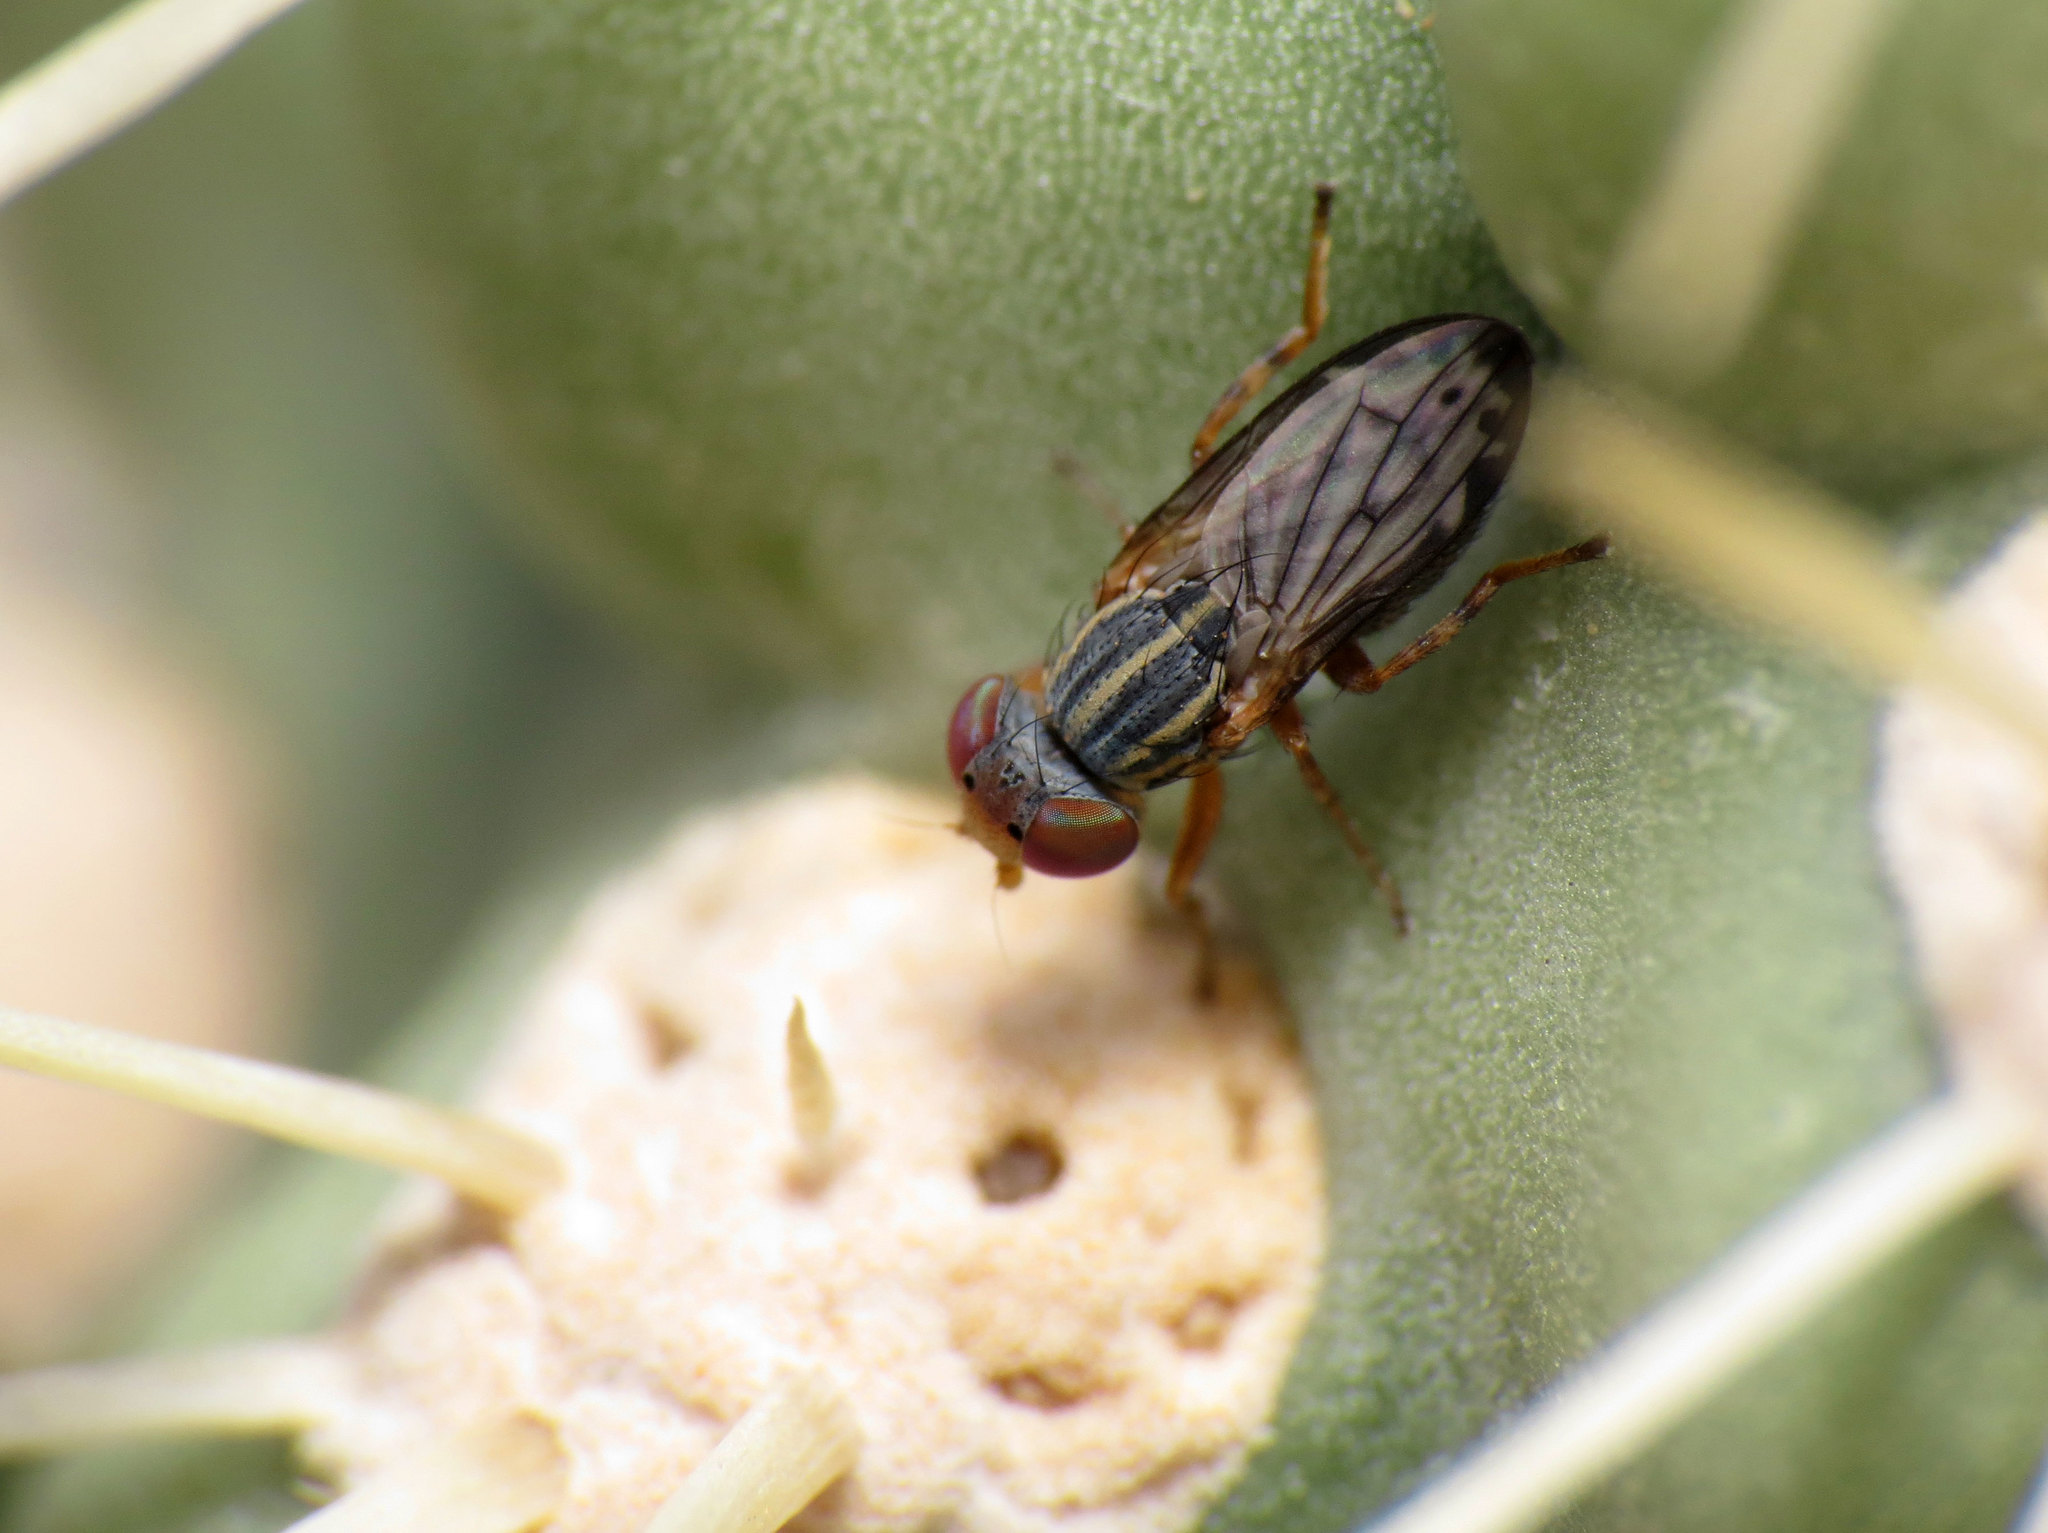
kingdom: Animalia
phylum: Arthropoda
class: Insecta
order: Diptera
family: Ulidiidae
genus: Paroedopa
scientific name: Paroedopa punctigera
